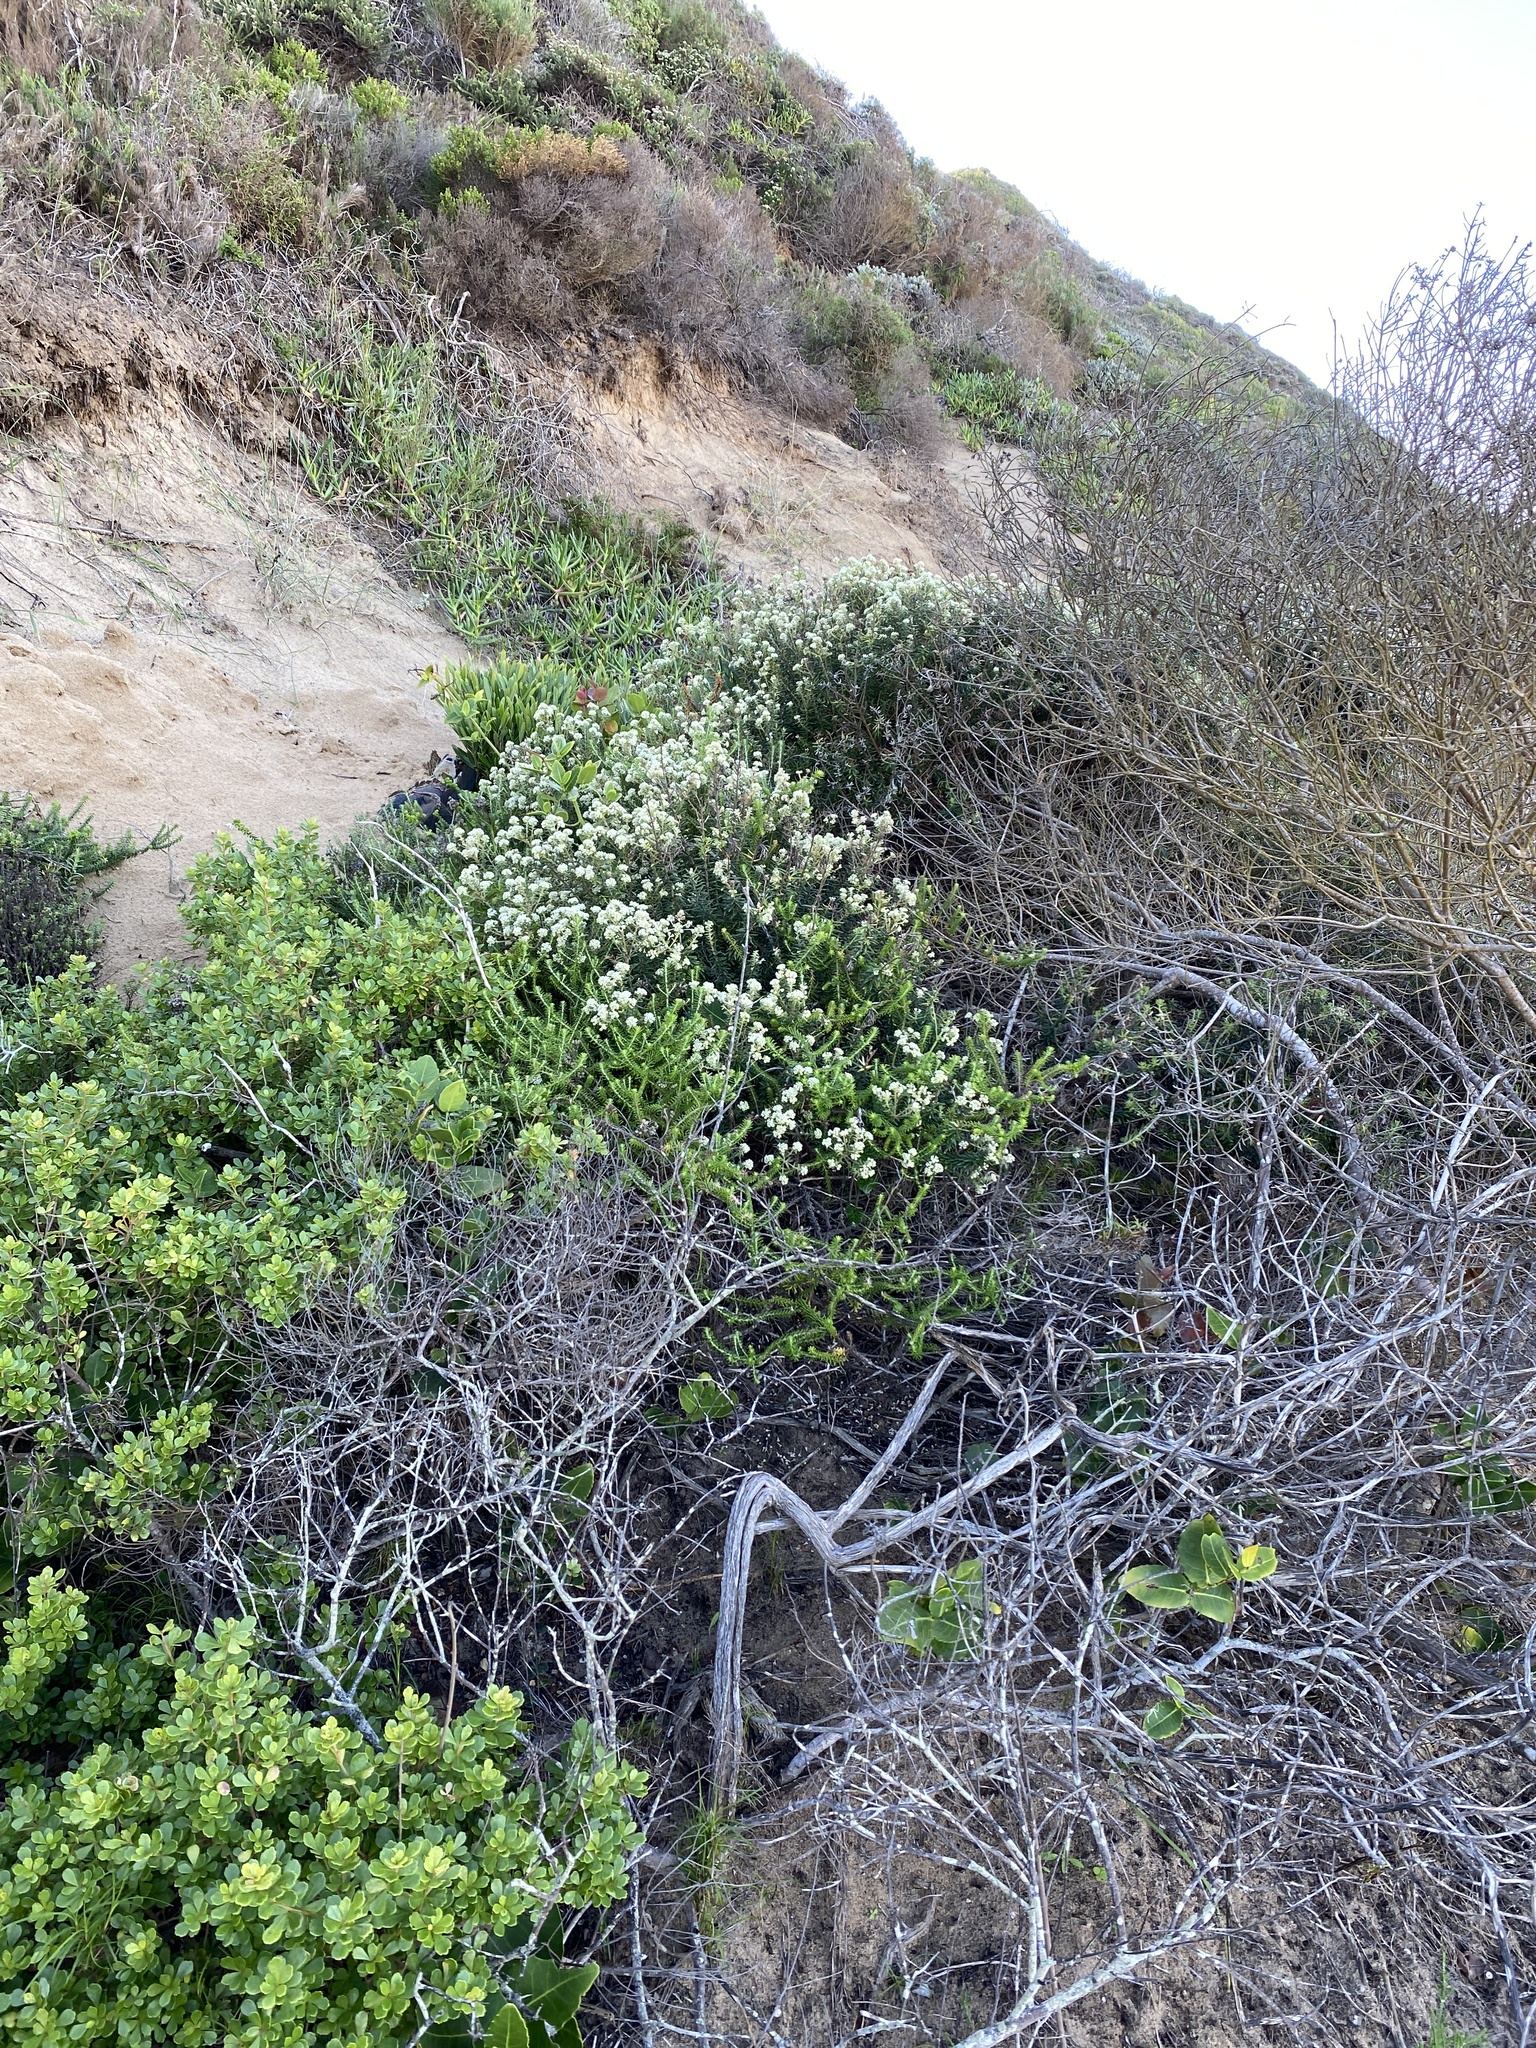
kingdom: Plantae
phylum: Tracheophyta
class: Magnoliopsida
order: Rosales
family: Rhamnaceae
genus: Phylica
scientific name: Phylica axillaris
